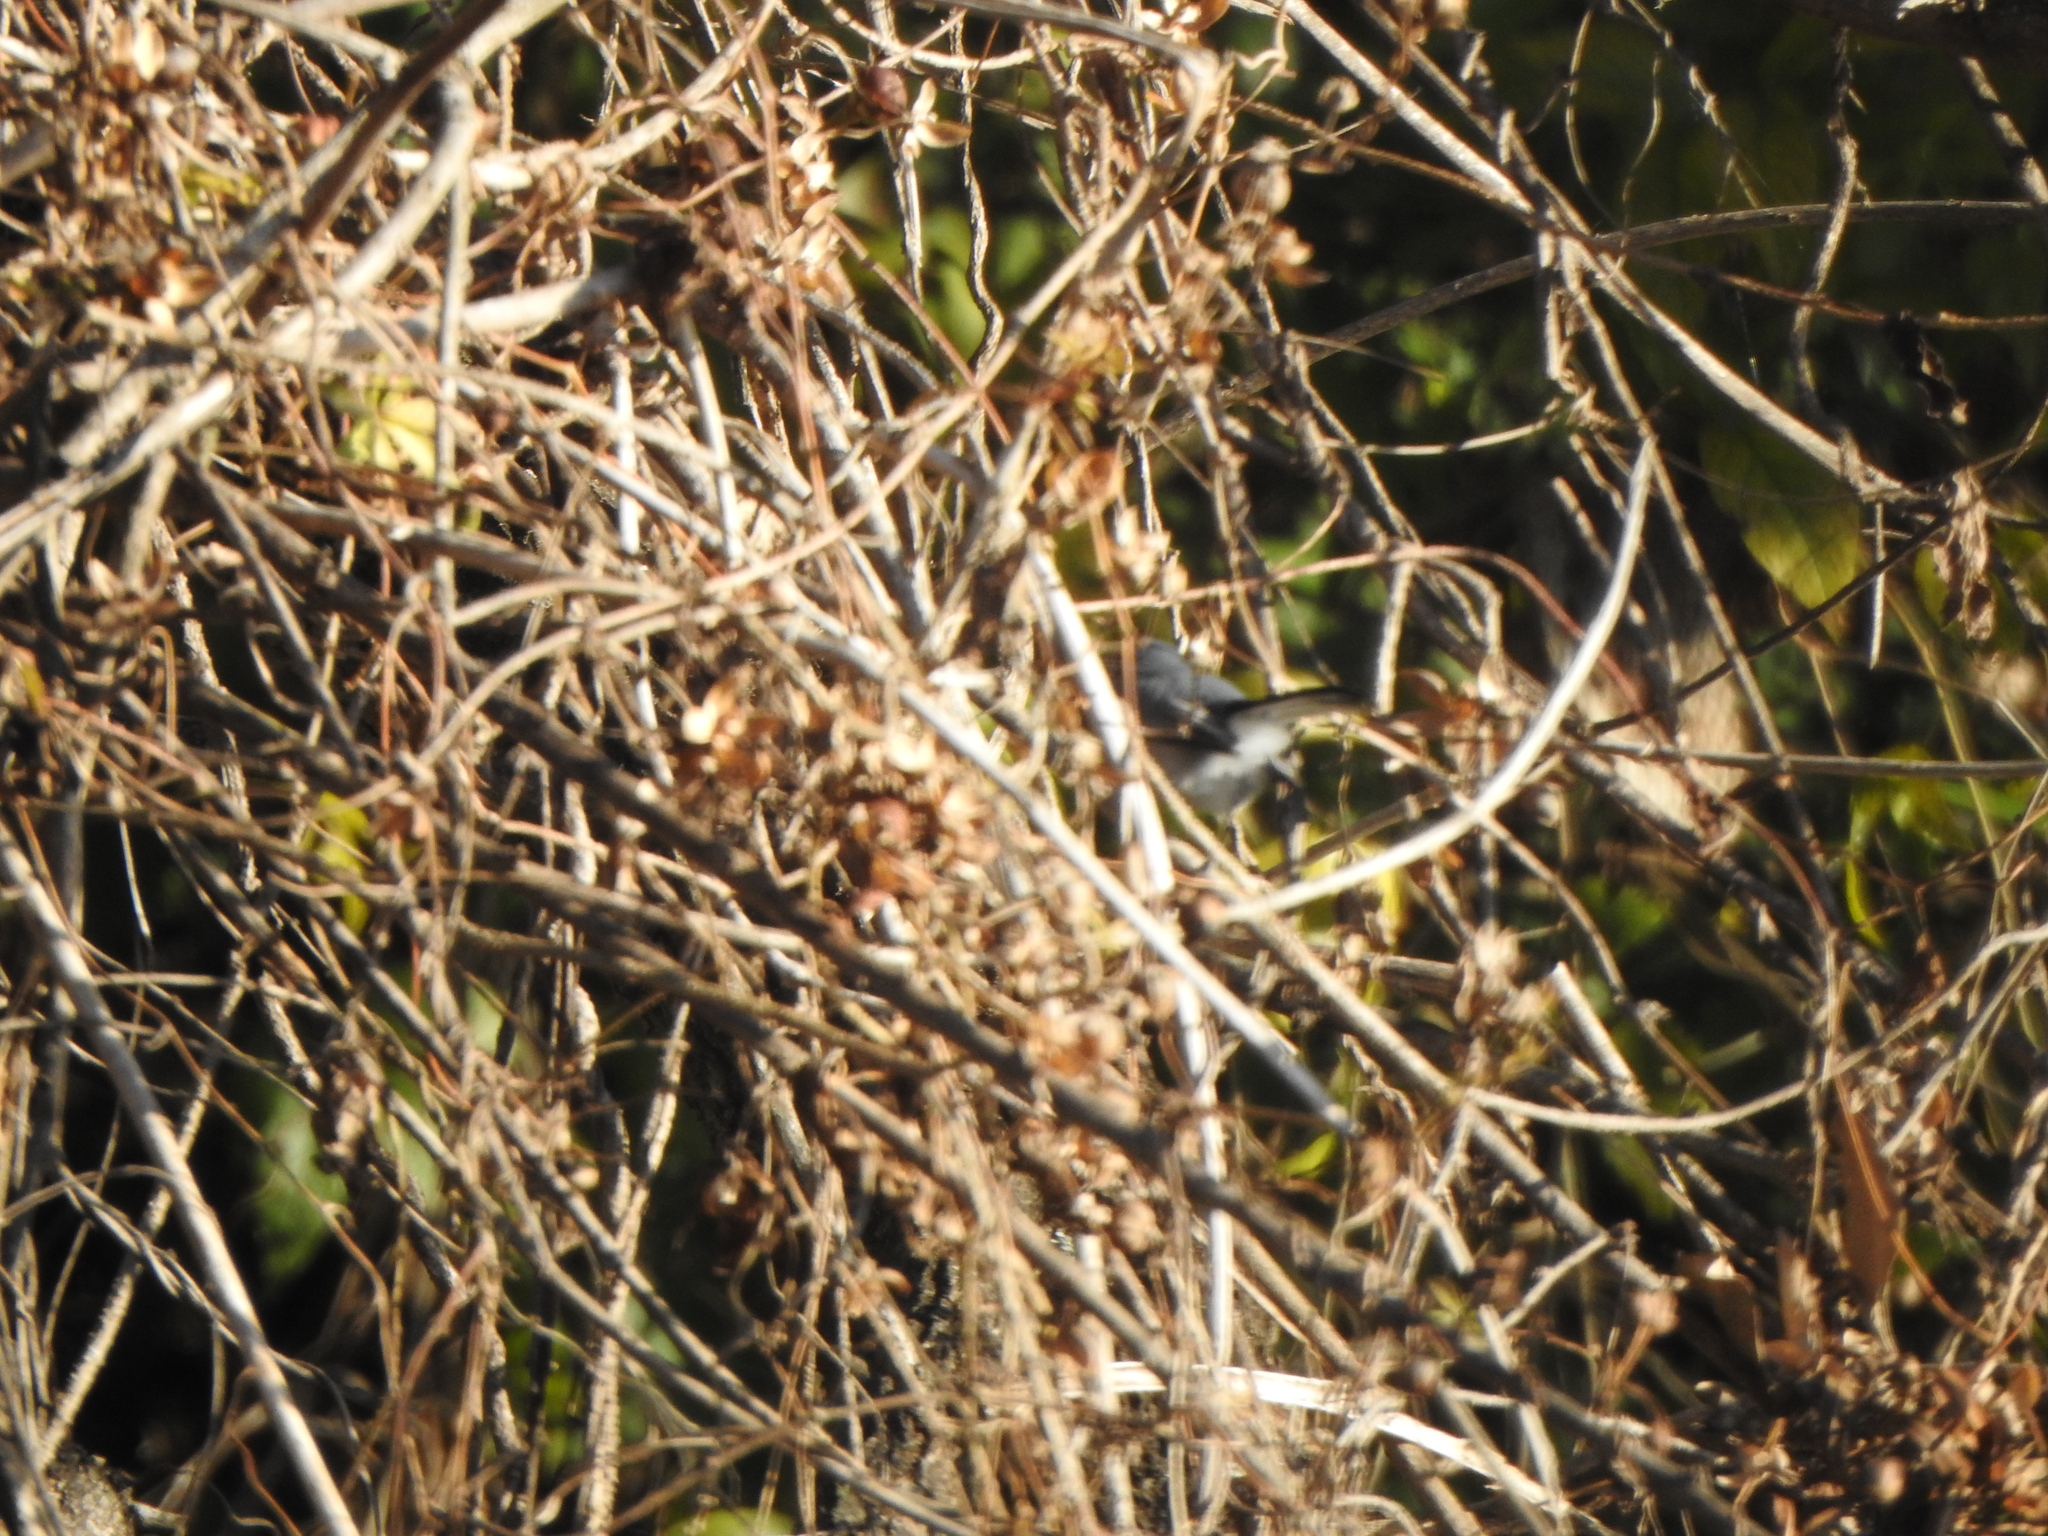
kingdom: Animalia
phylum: Chordata
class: Aves
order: Passeriformes
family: Polioptilidae
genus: Polioptila
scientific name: Polioptila dumicola
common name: Masked gnatcatcher
